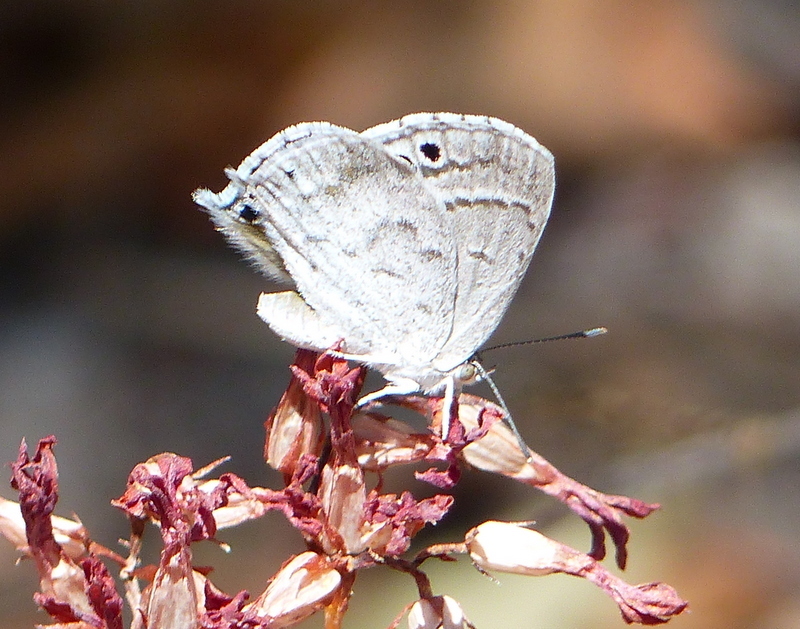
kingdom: Animalia
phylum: Arthropoda
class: Insecta
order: Lepidoptera
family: Lycaenidae
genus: Leptomyrina
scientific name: Leptomyrina hirundo
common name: Tailed black-eye
